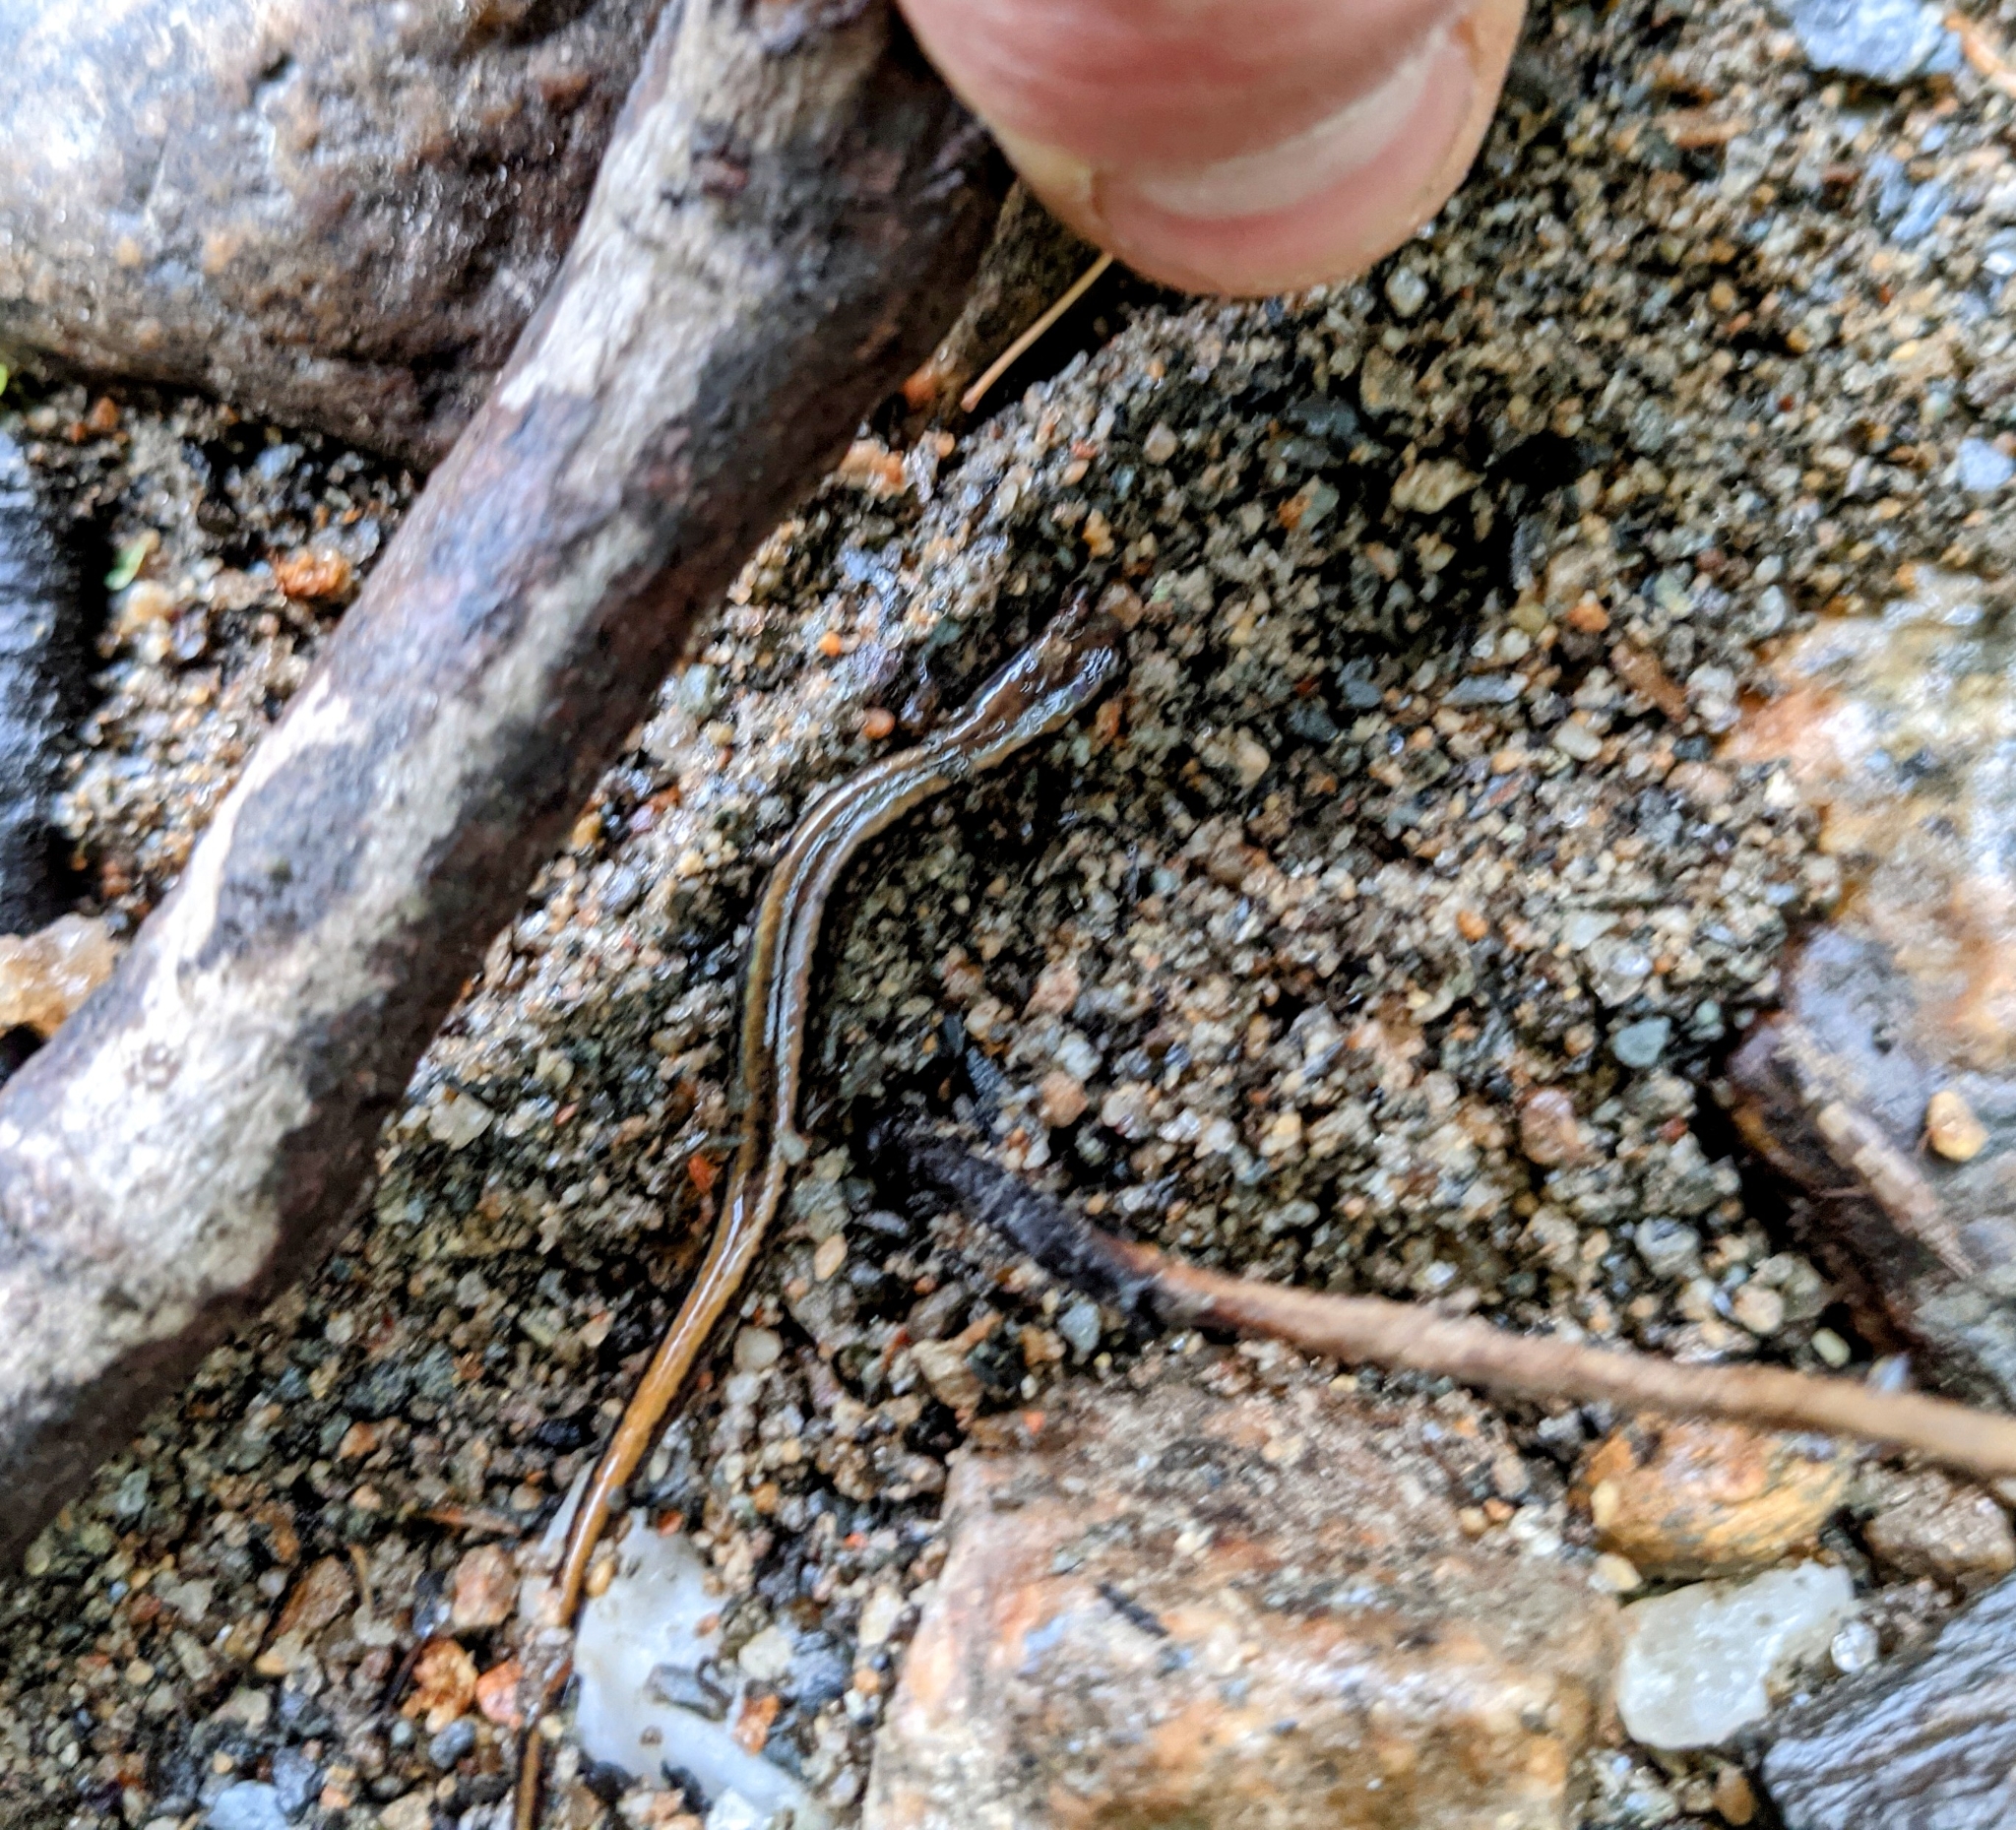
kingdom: Animalia
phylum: Chordata
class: Amphibia
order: Caudata
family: Plethodontidae
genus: Eurycea
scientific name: Eurycea bislineata
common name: Northern two-lined salamander
